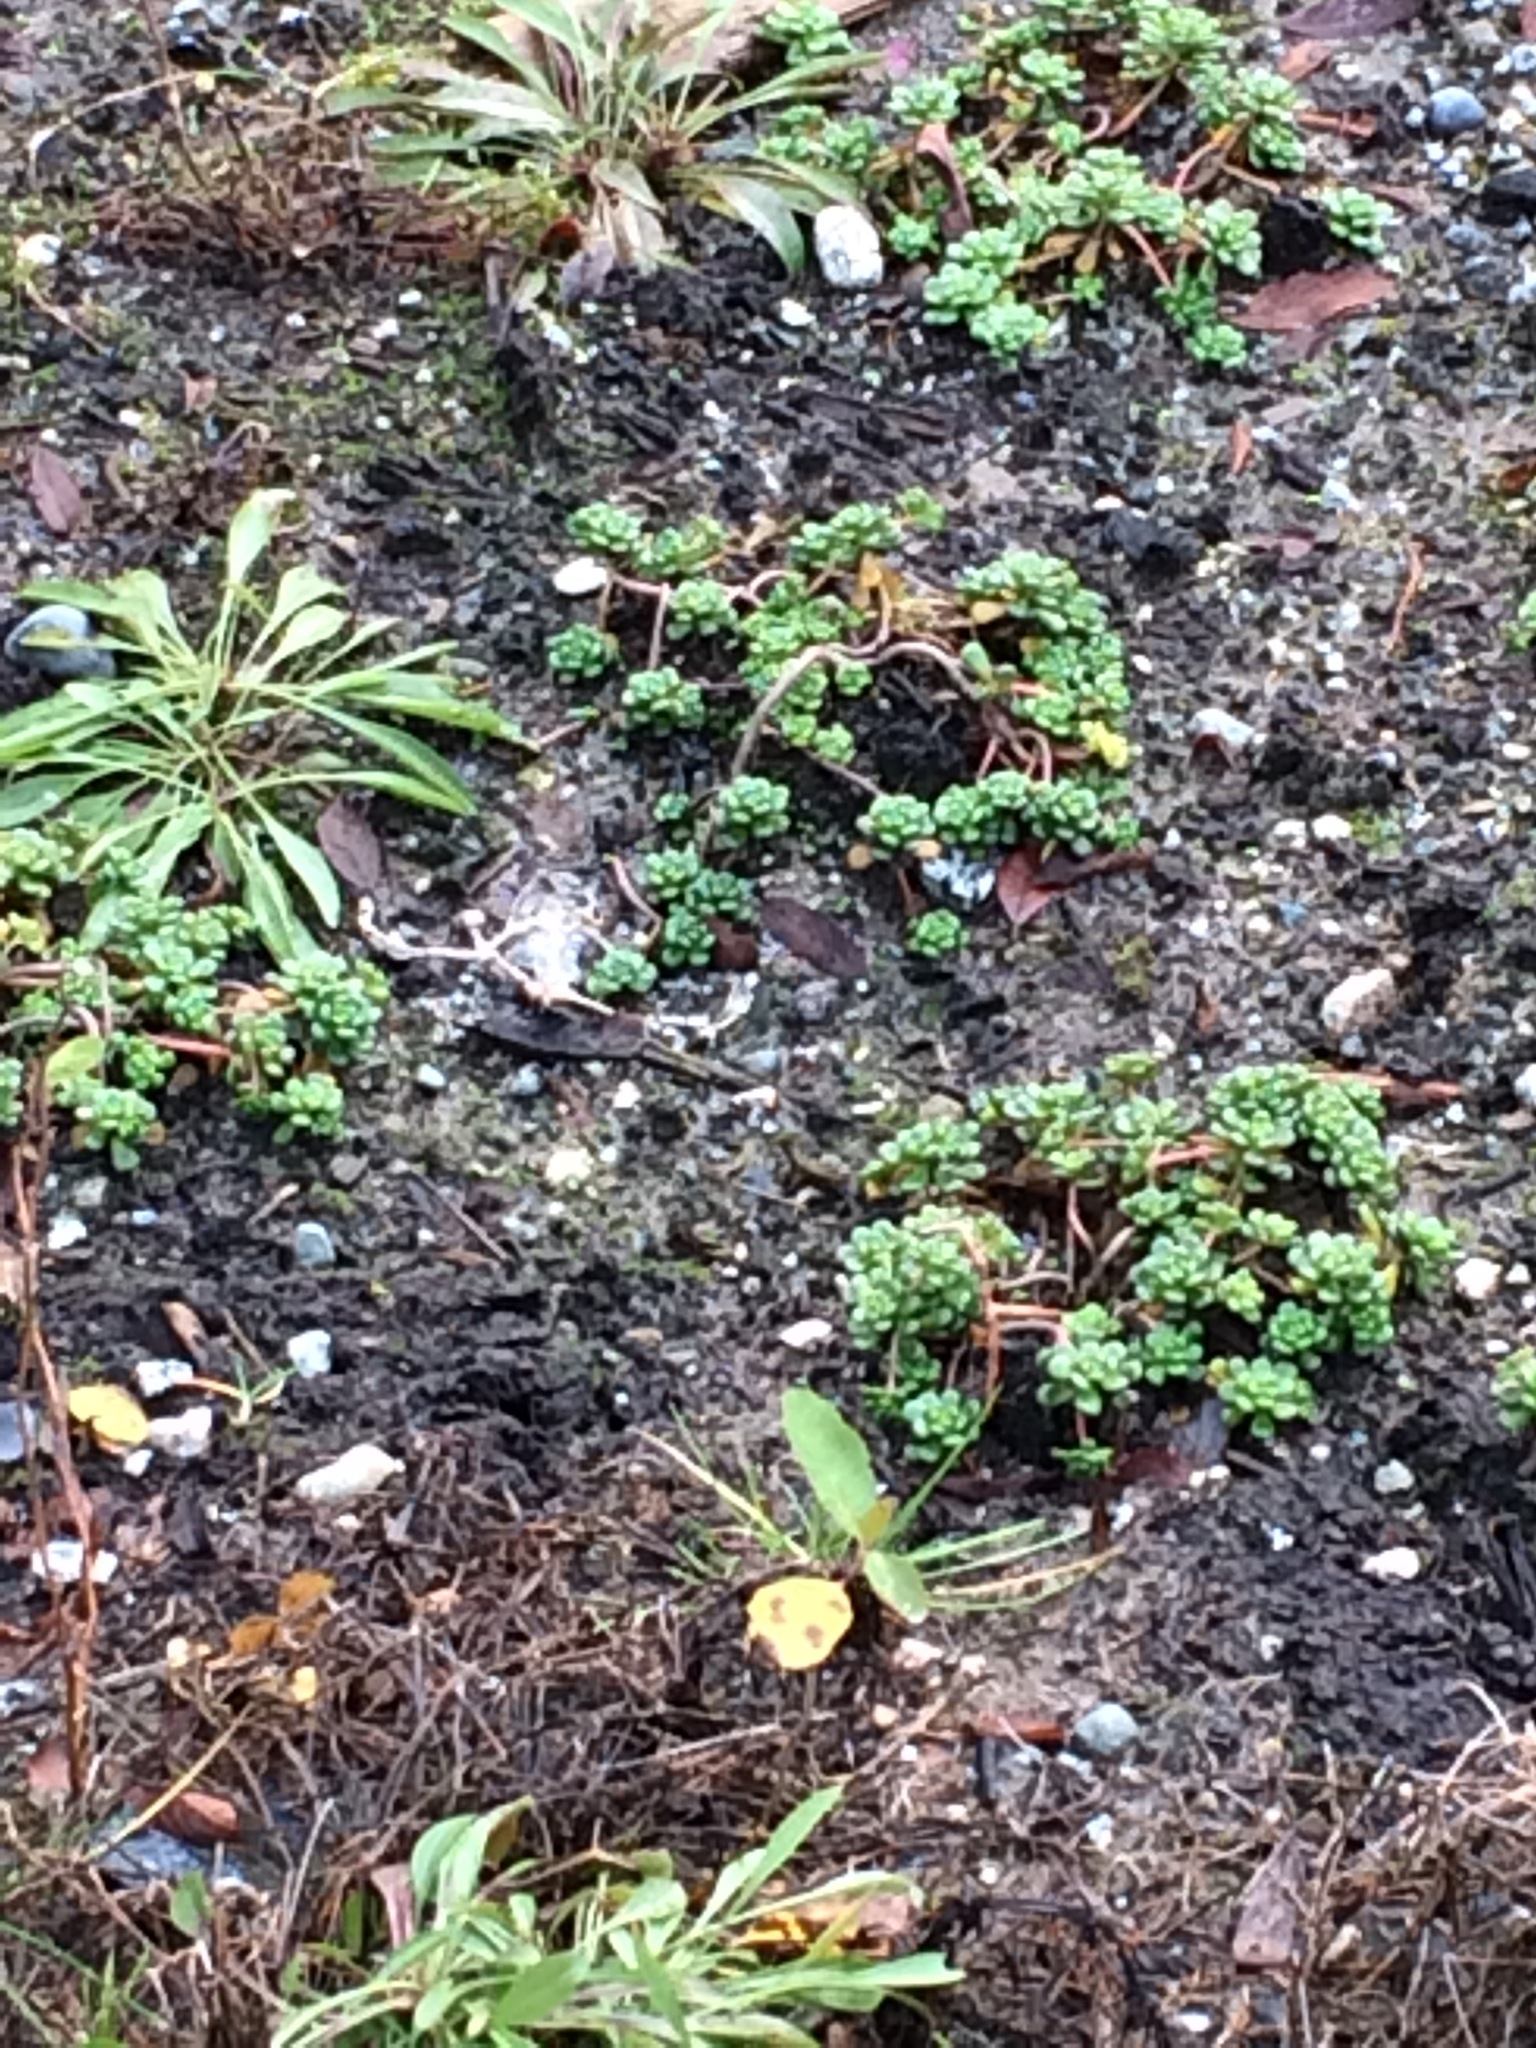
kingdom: Plantae
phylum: Tracheophyta
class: Magnoliopsida
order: Saxifragales
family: Crassulaceae
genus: Sedum
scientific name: Sedum oreganum
